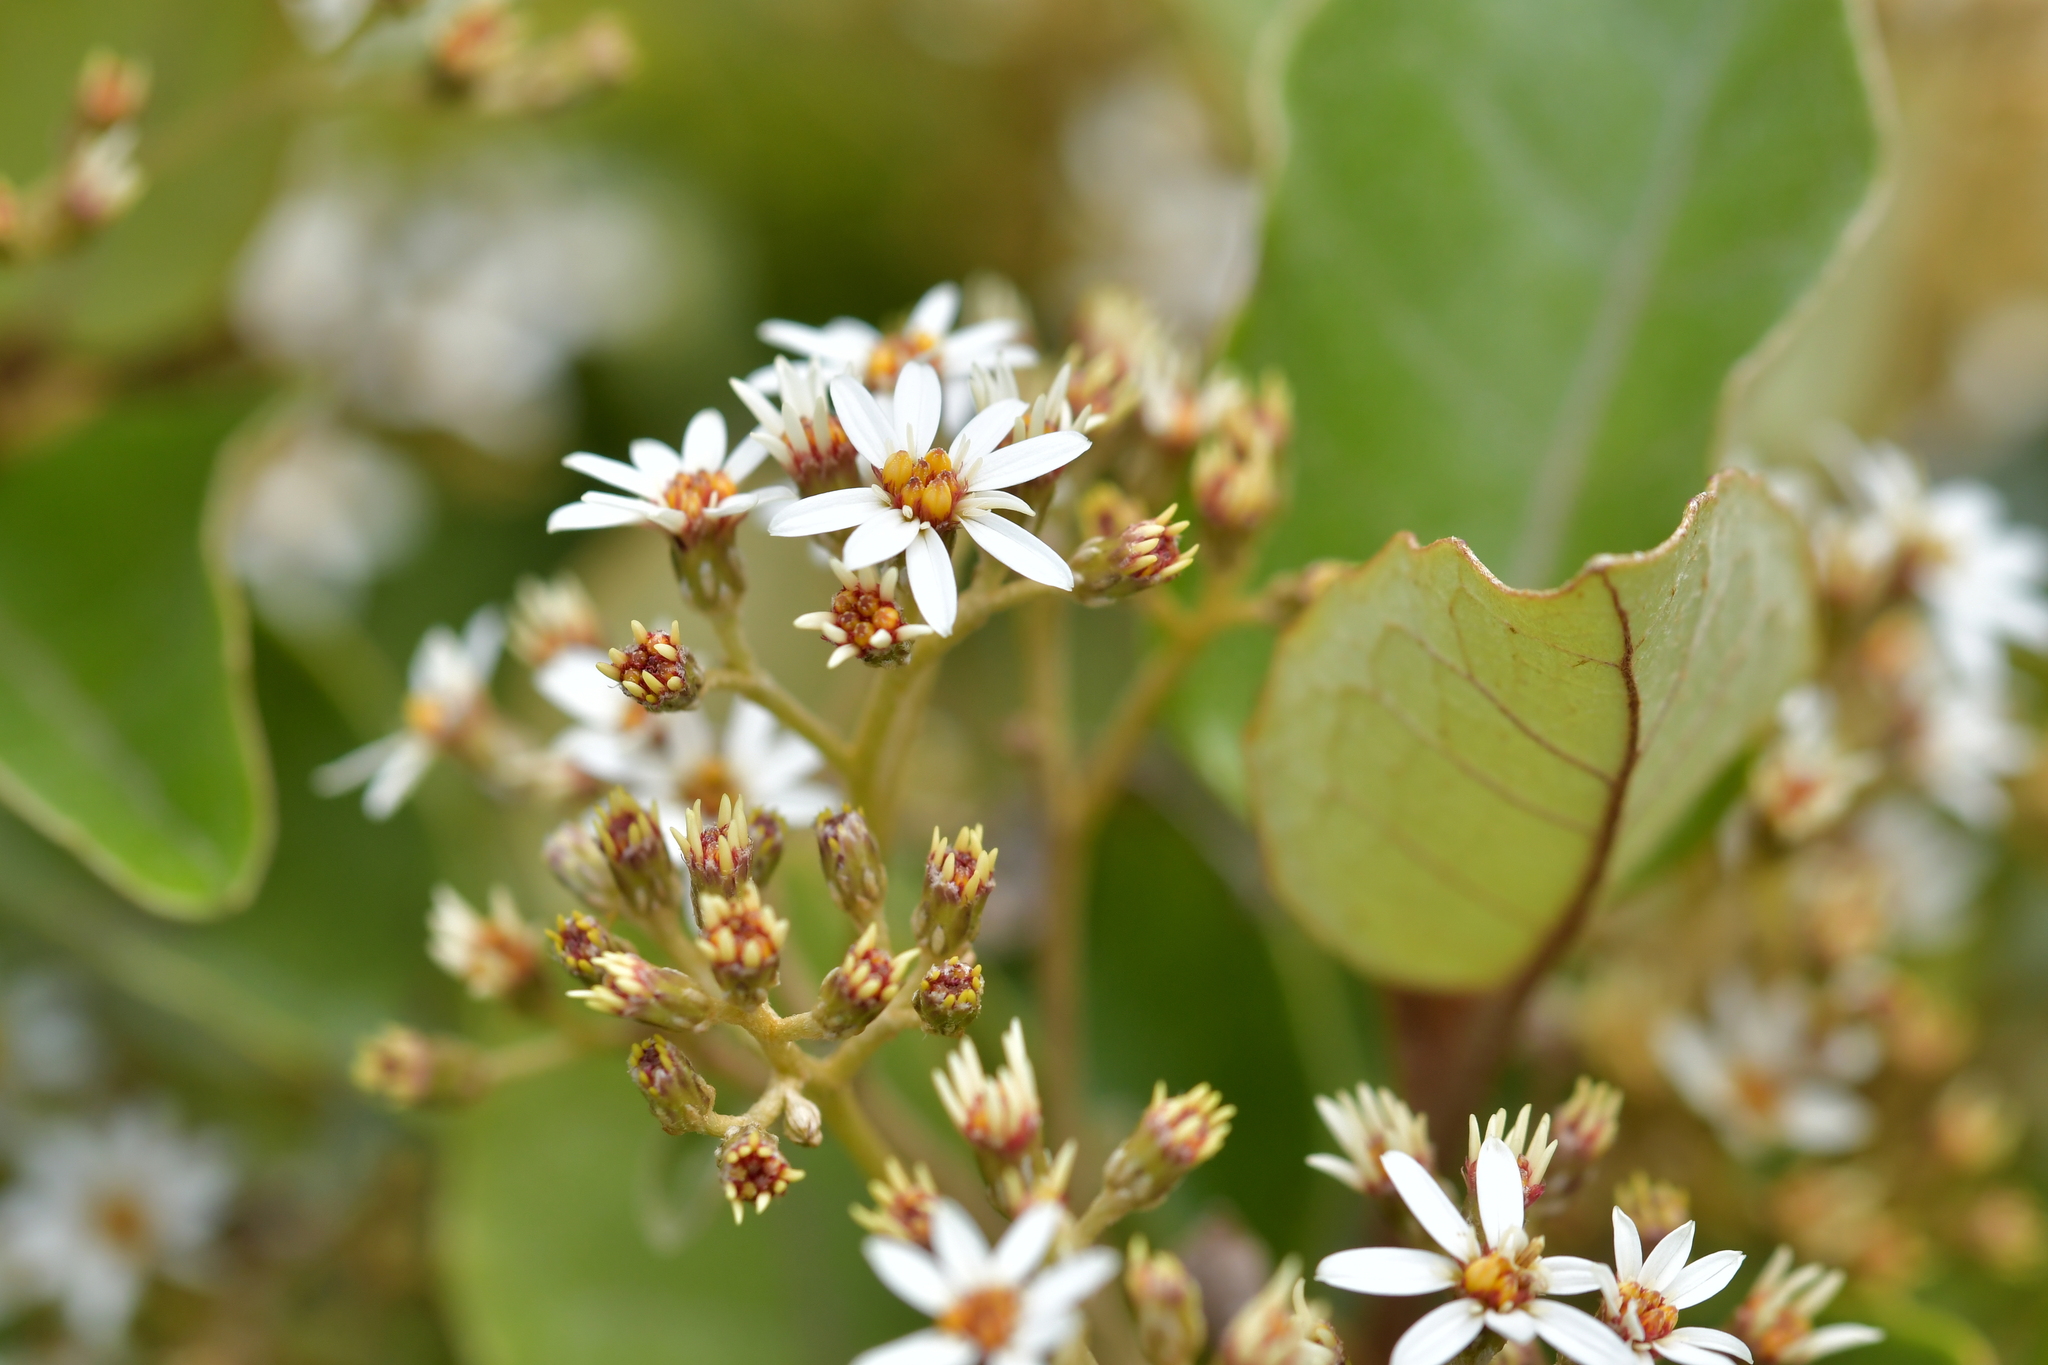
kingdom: Plantae
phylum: Tracheophyta
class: Magnoliopsida
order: Asterales
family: Asteraceae
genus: Olearia
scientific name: Olearia arborescens
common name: Glossy tree daisy
